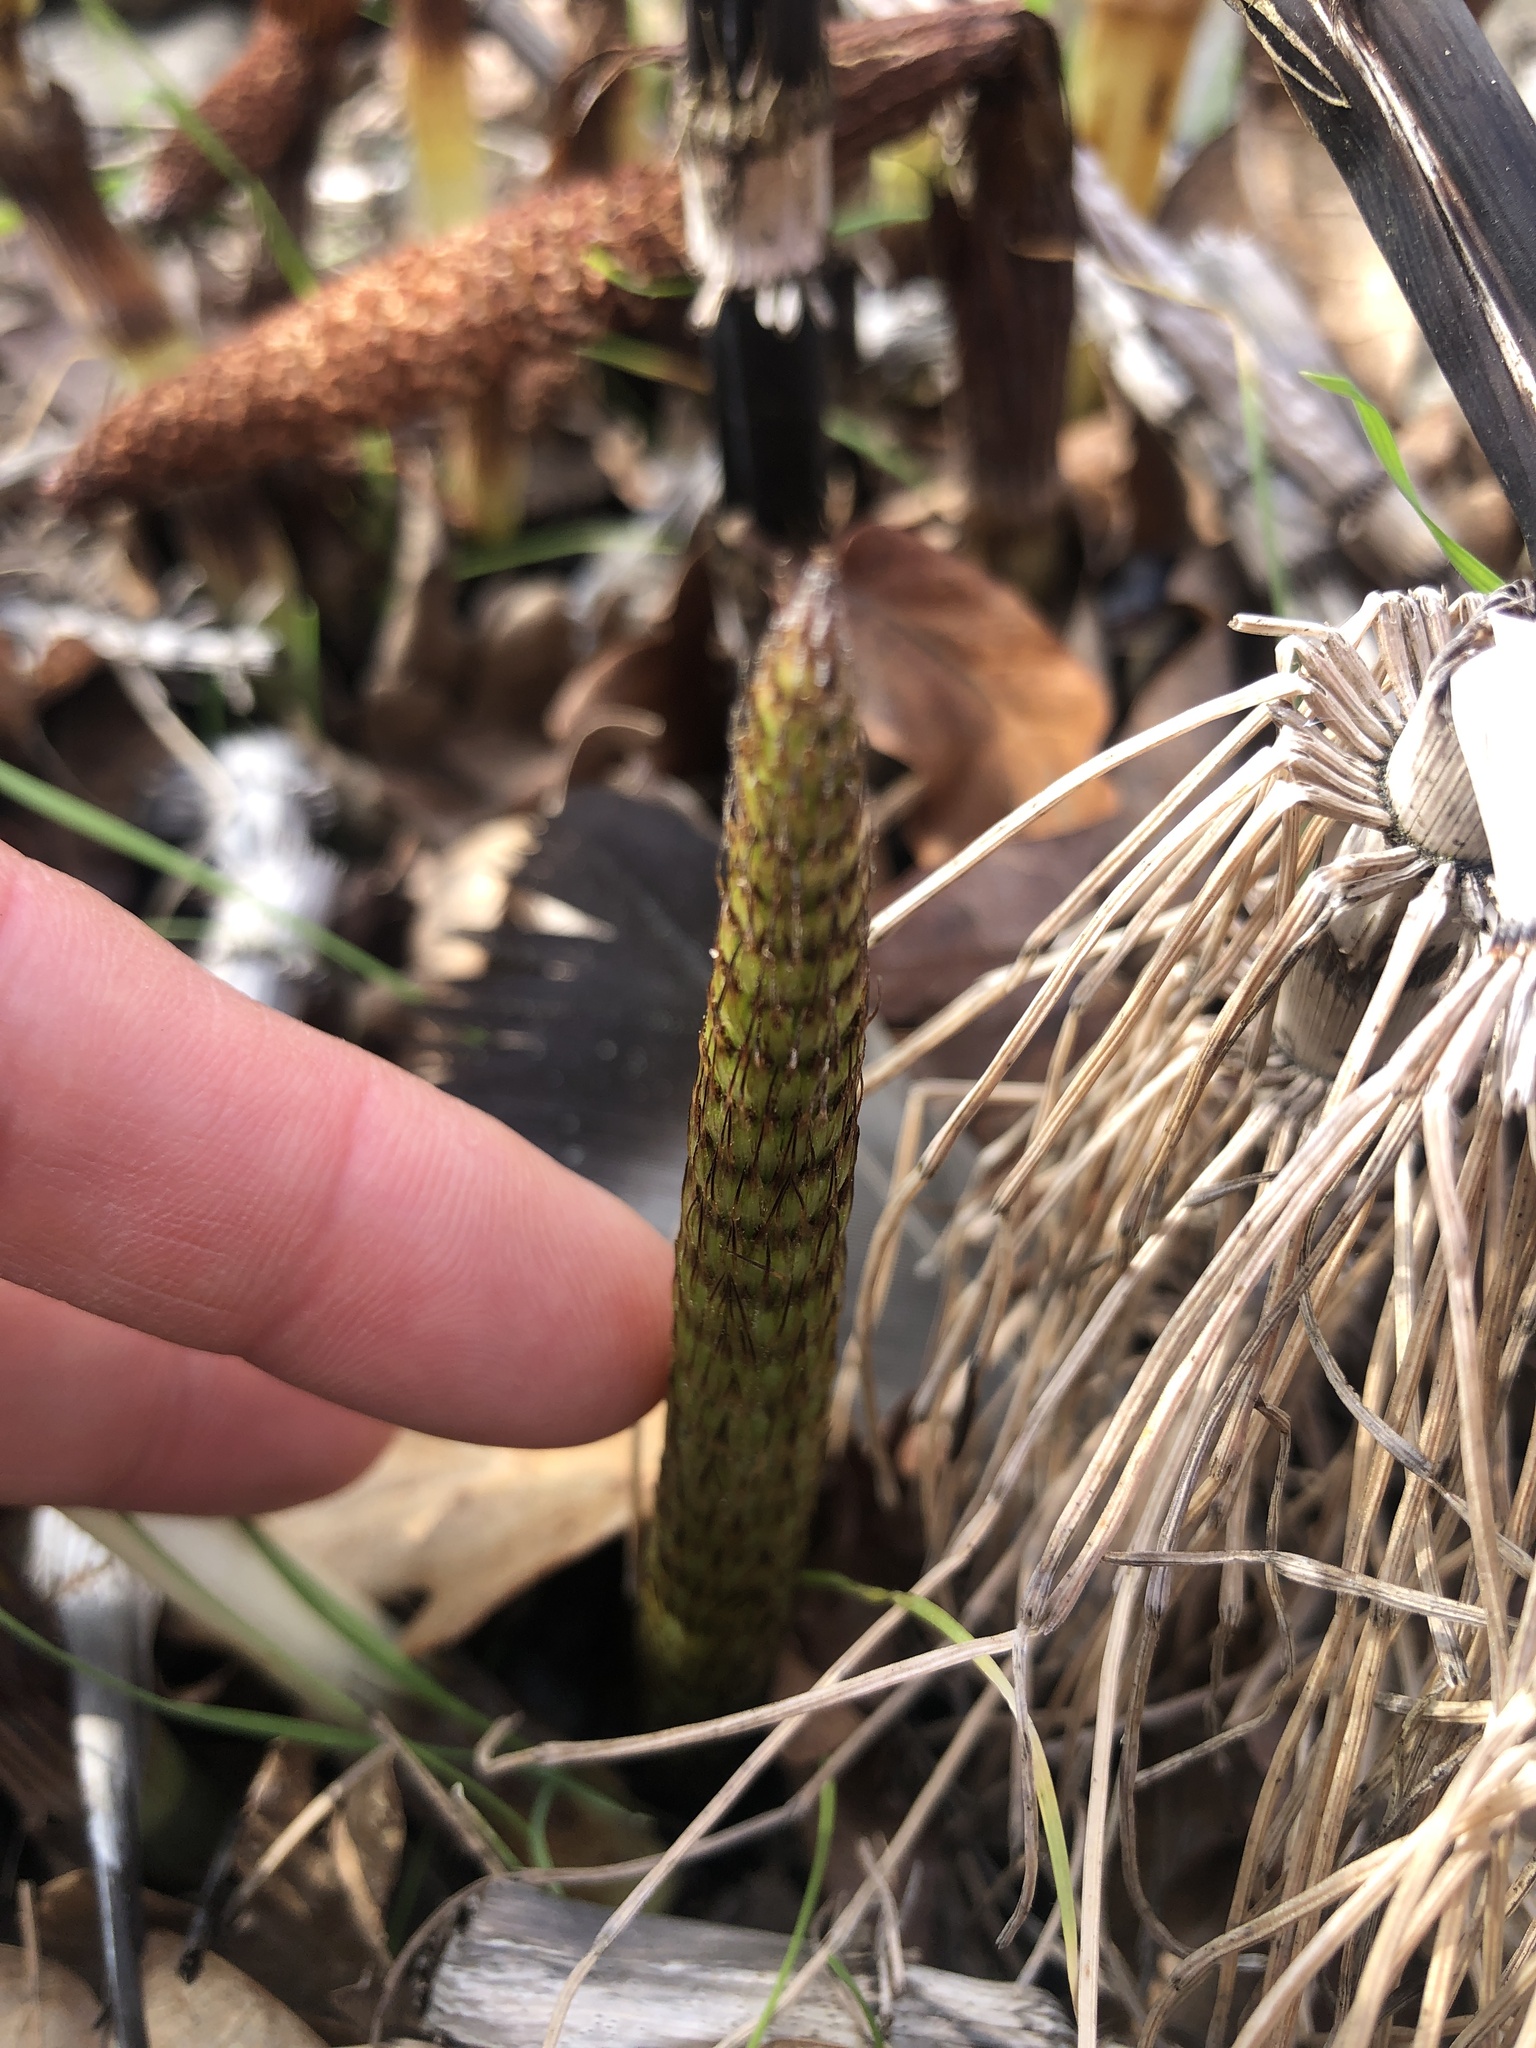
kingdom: Plantae
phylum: Tracheophyta
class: Polypodiopsida
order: Equisetales
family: Equisetaceae
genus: Equisetum
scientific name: Equisetum telmateia
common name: Great horsetail
